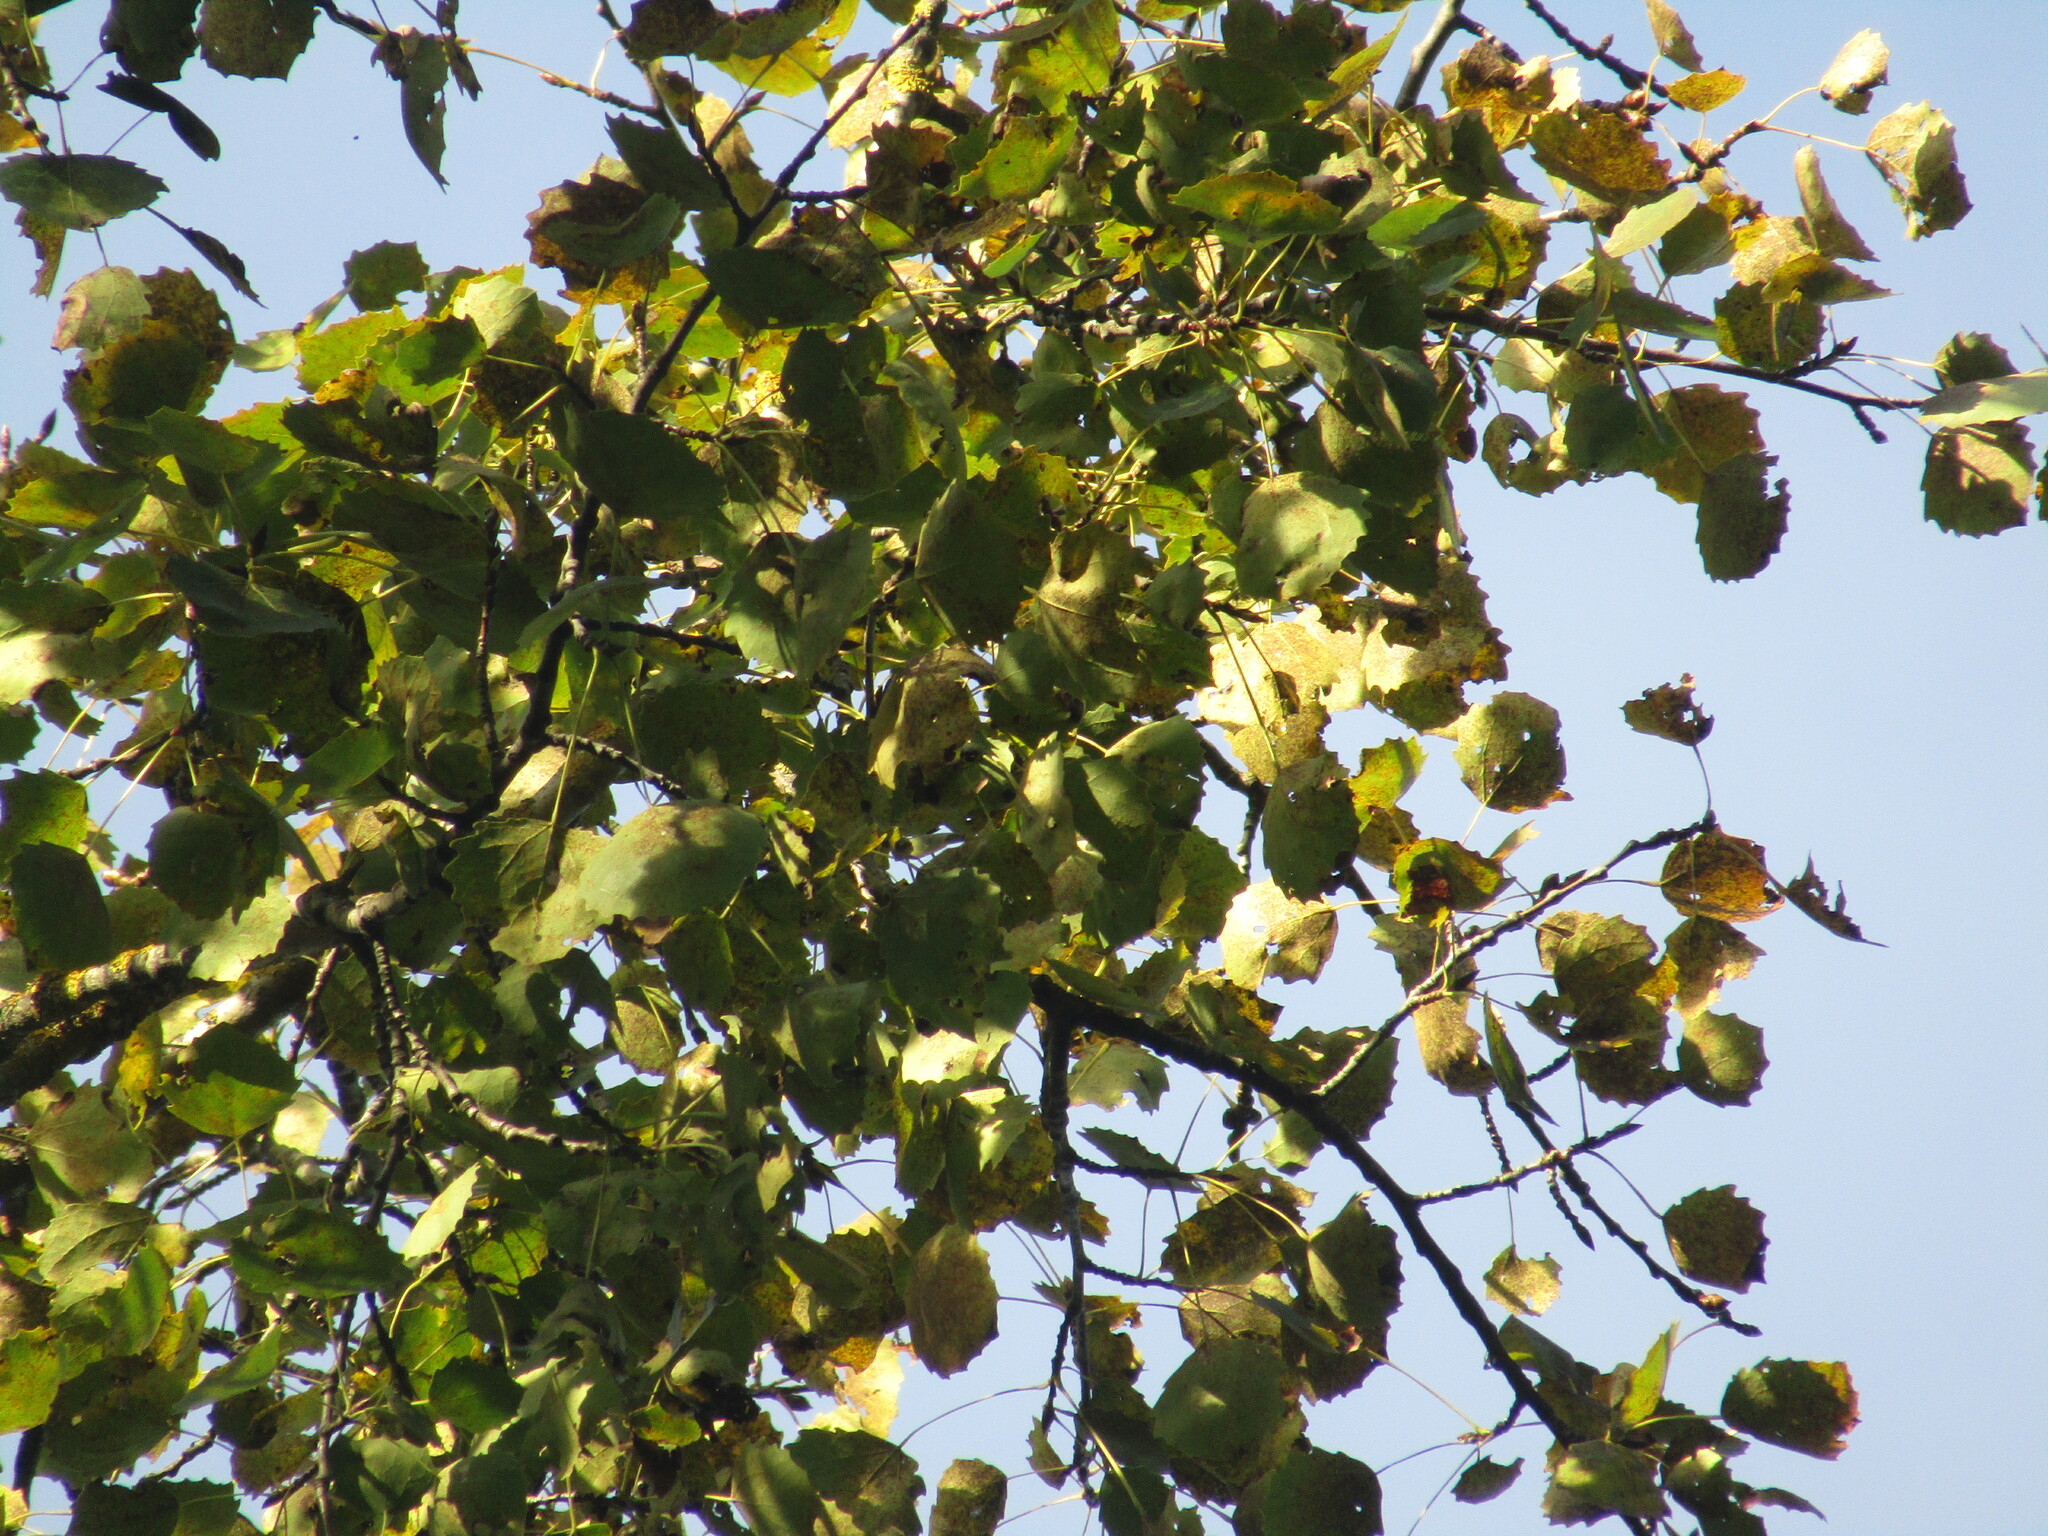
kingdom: Plantae
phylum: Tracheophyta
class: Magnoliopsida
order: Malpighiales
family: Salicaceae
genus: Populus
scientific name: Populus tremula
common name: European aspen
